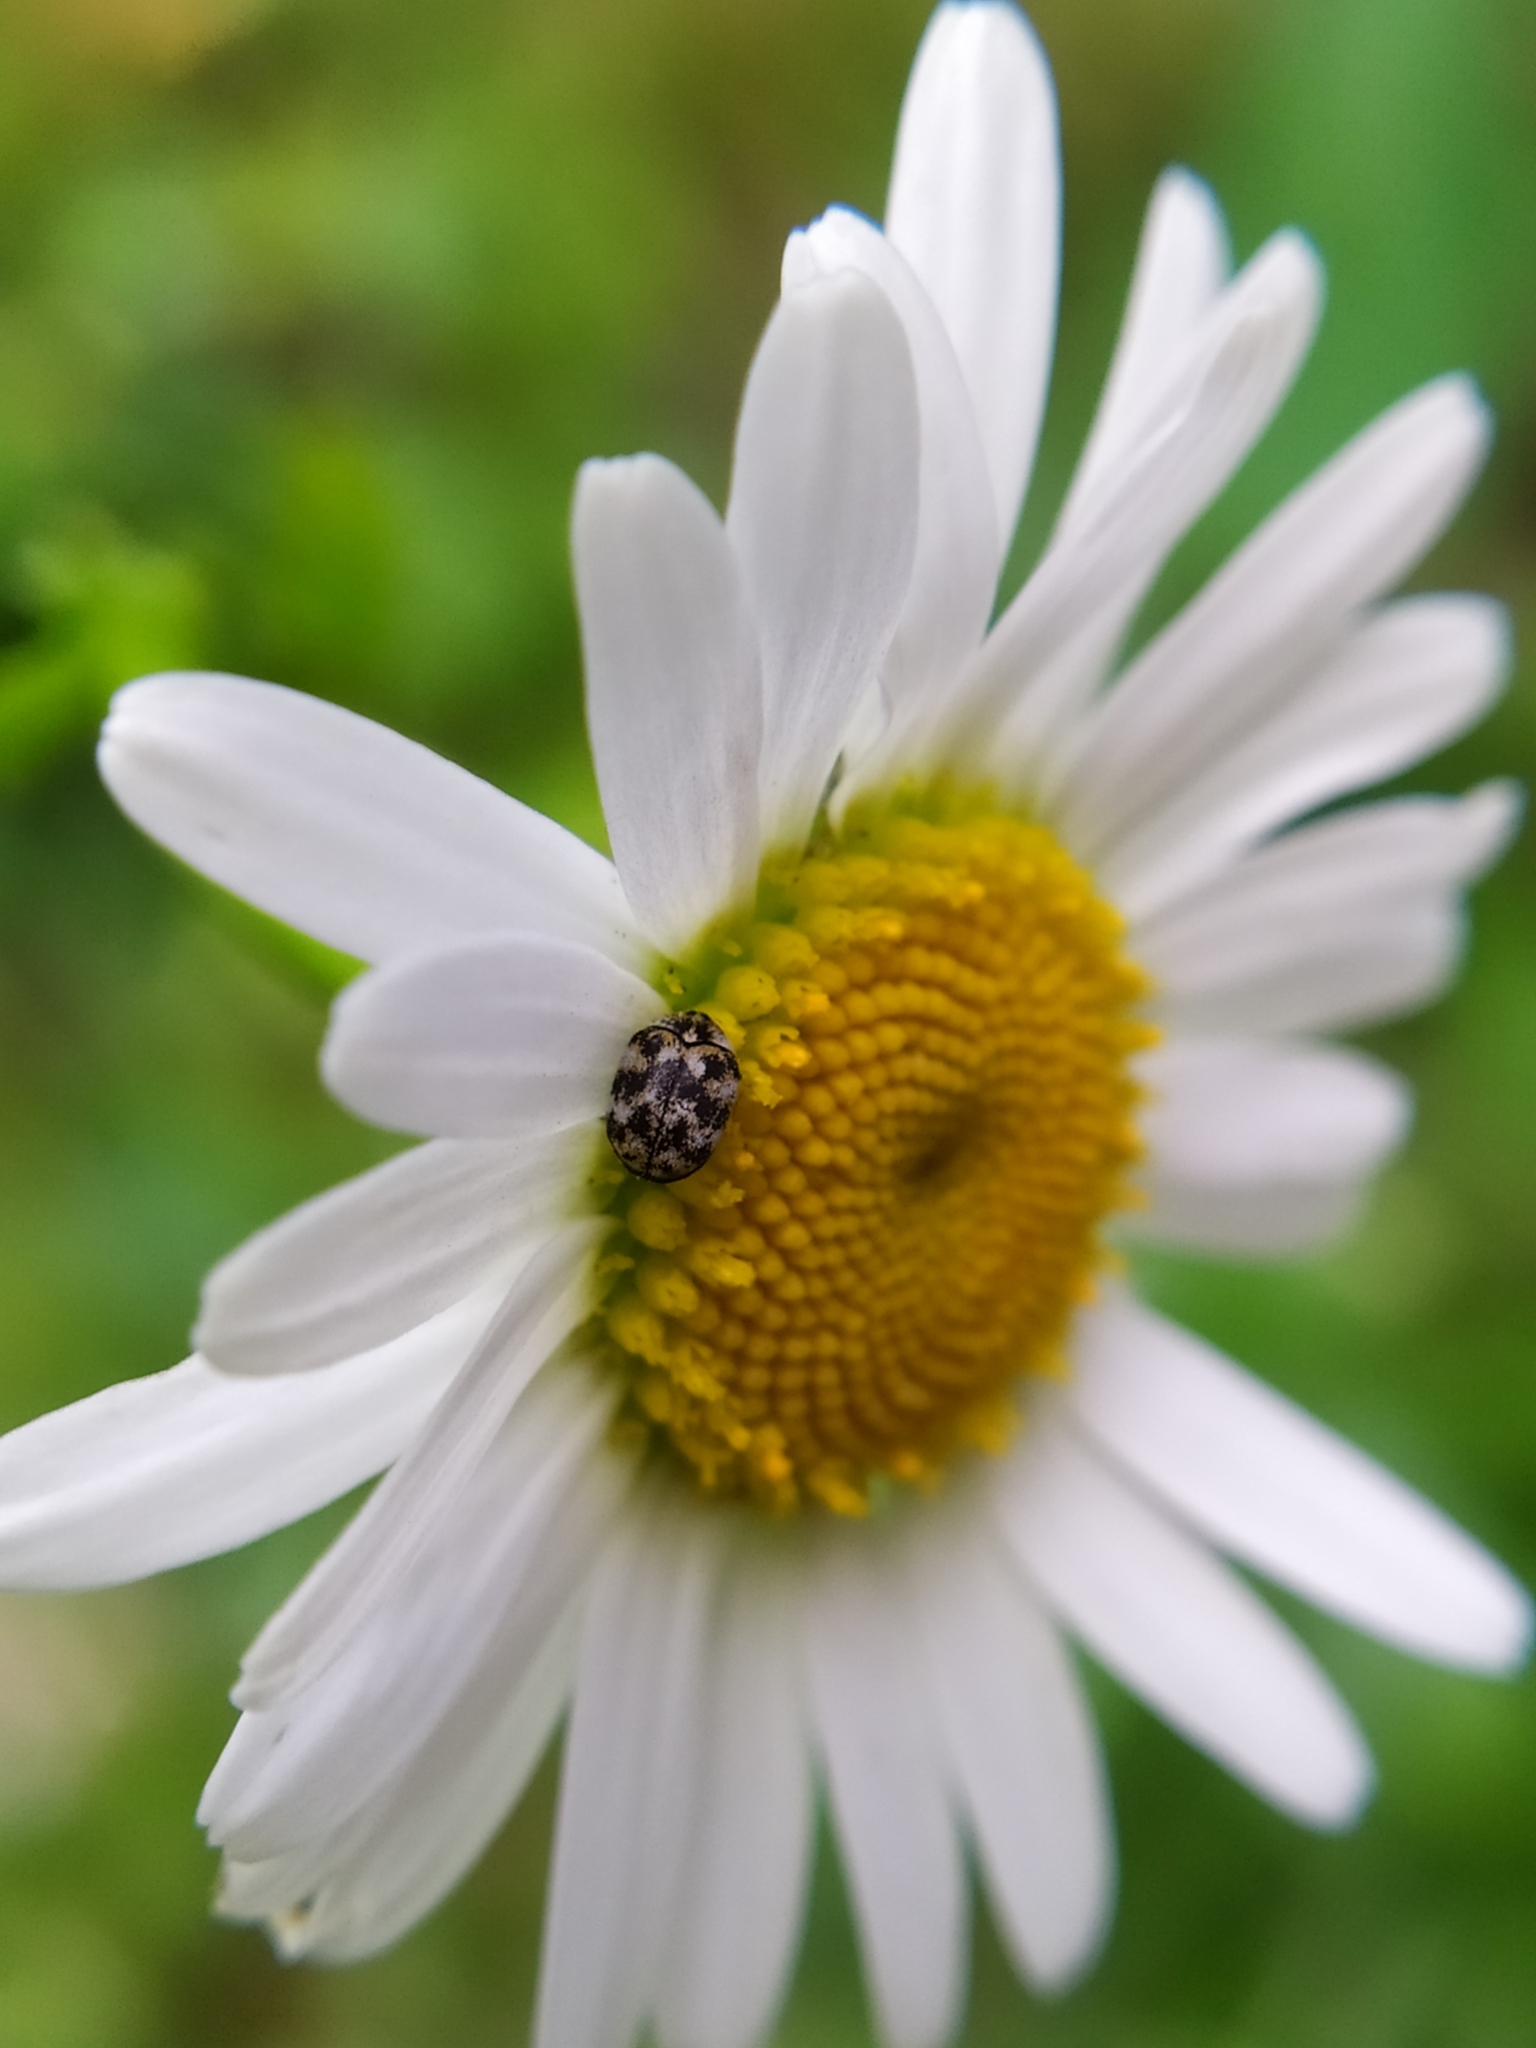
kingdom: Animalia
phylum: Arthropoda
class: Insecta
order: Coleoptera
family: Dermestidae
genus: Anthrenus
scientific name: Anthrenus verbasci
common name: Varied carpet beetle
